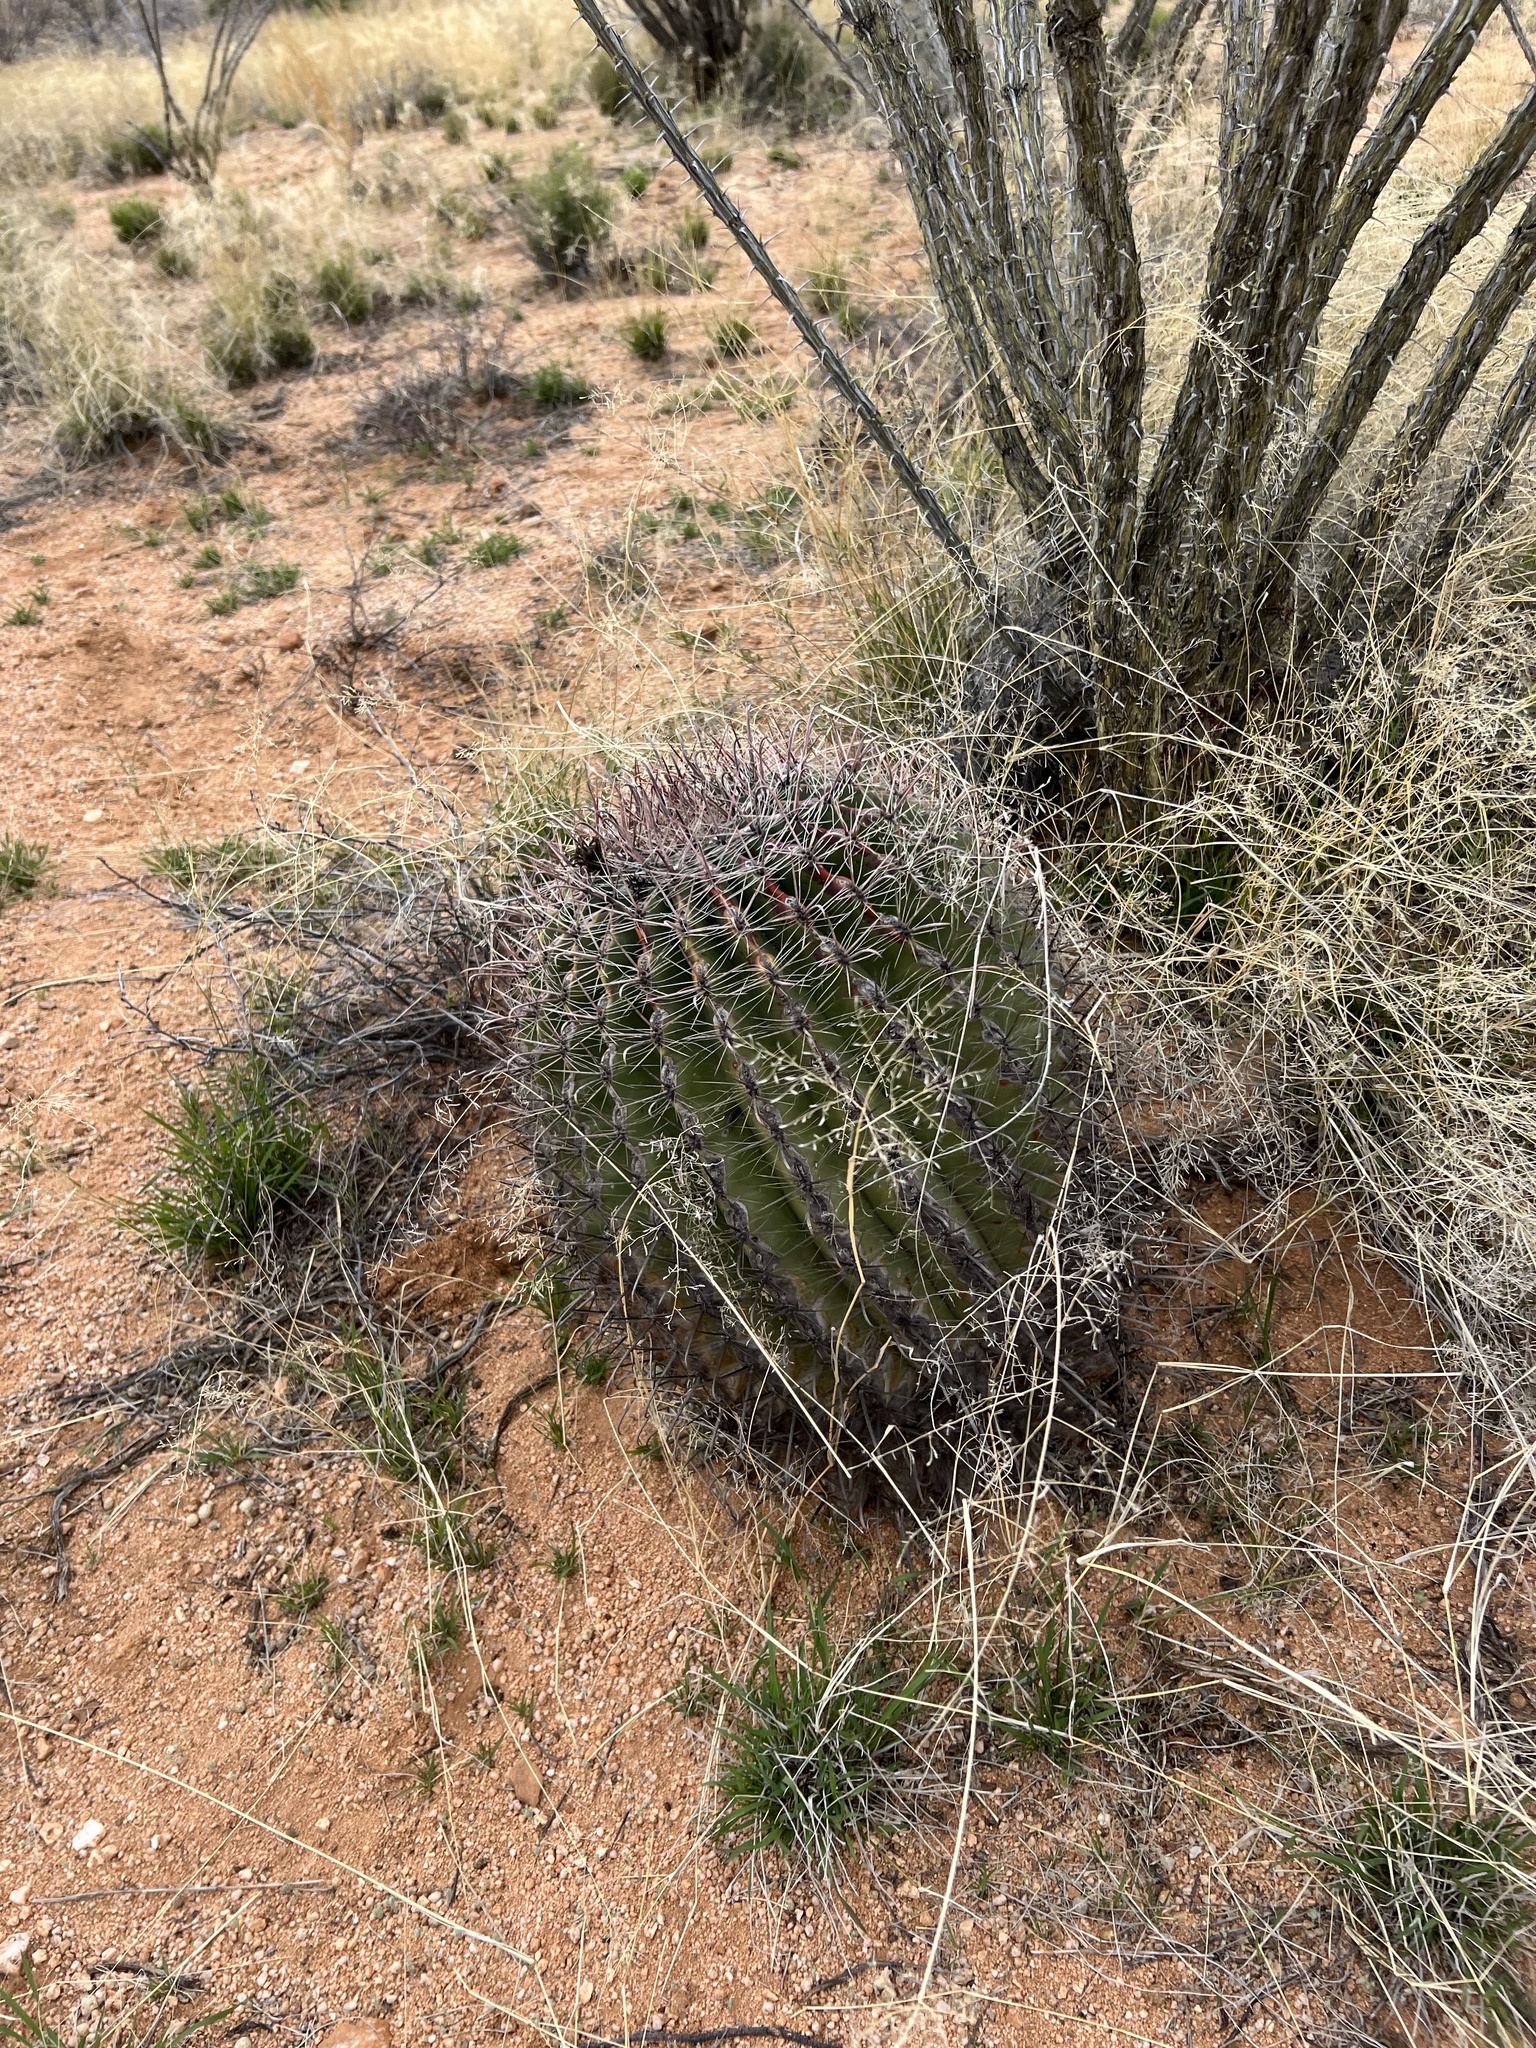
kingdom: Plantae
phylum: Tracheophyta
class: Magnoliopsida
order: Caryophyllales
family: Cactaceae
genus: Ferocactus
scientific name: Ferocactus wislizeni
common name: Candy barrel cactus
